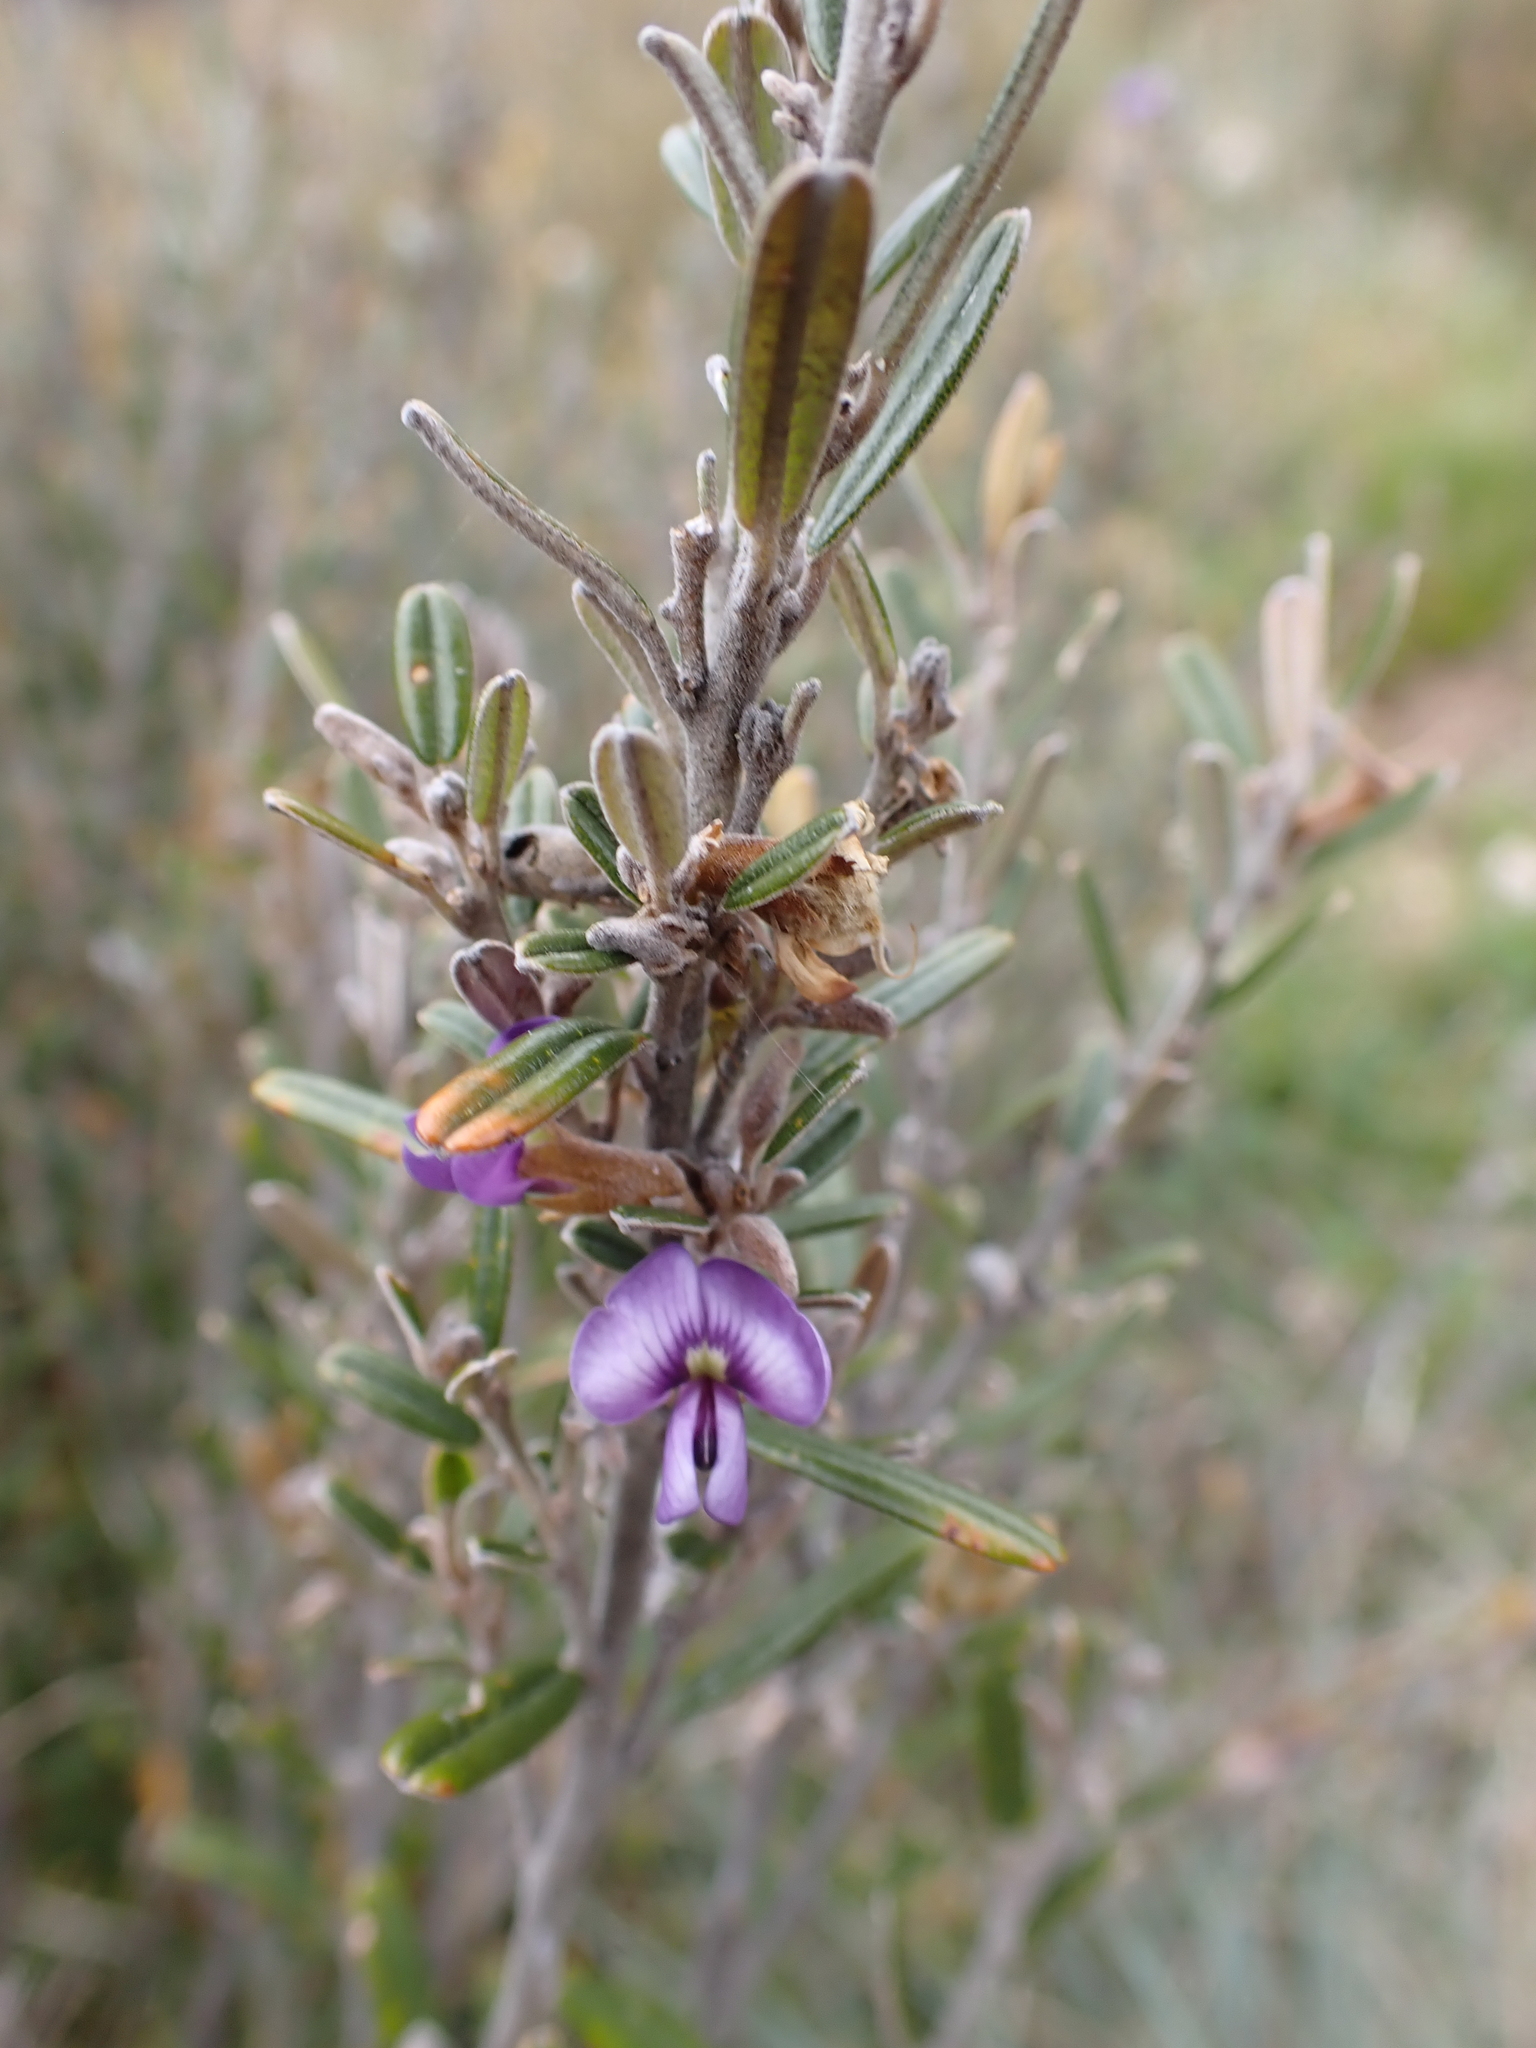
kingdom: Plantae
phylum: Tracheophyta
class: Magnoliopsida
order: Fabales
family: Fabaceae
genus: Hovea
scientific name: Hovea montana
